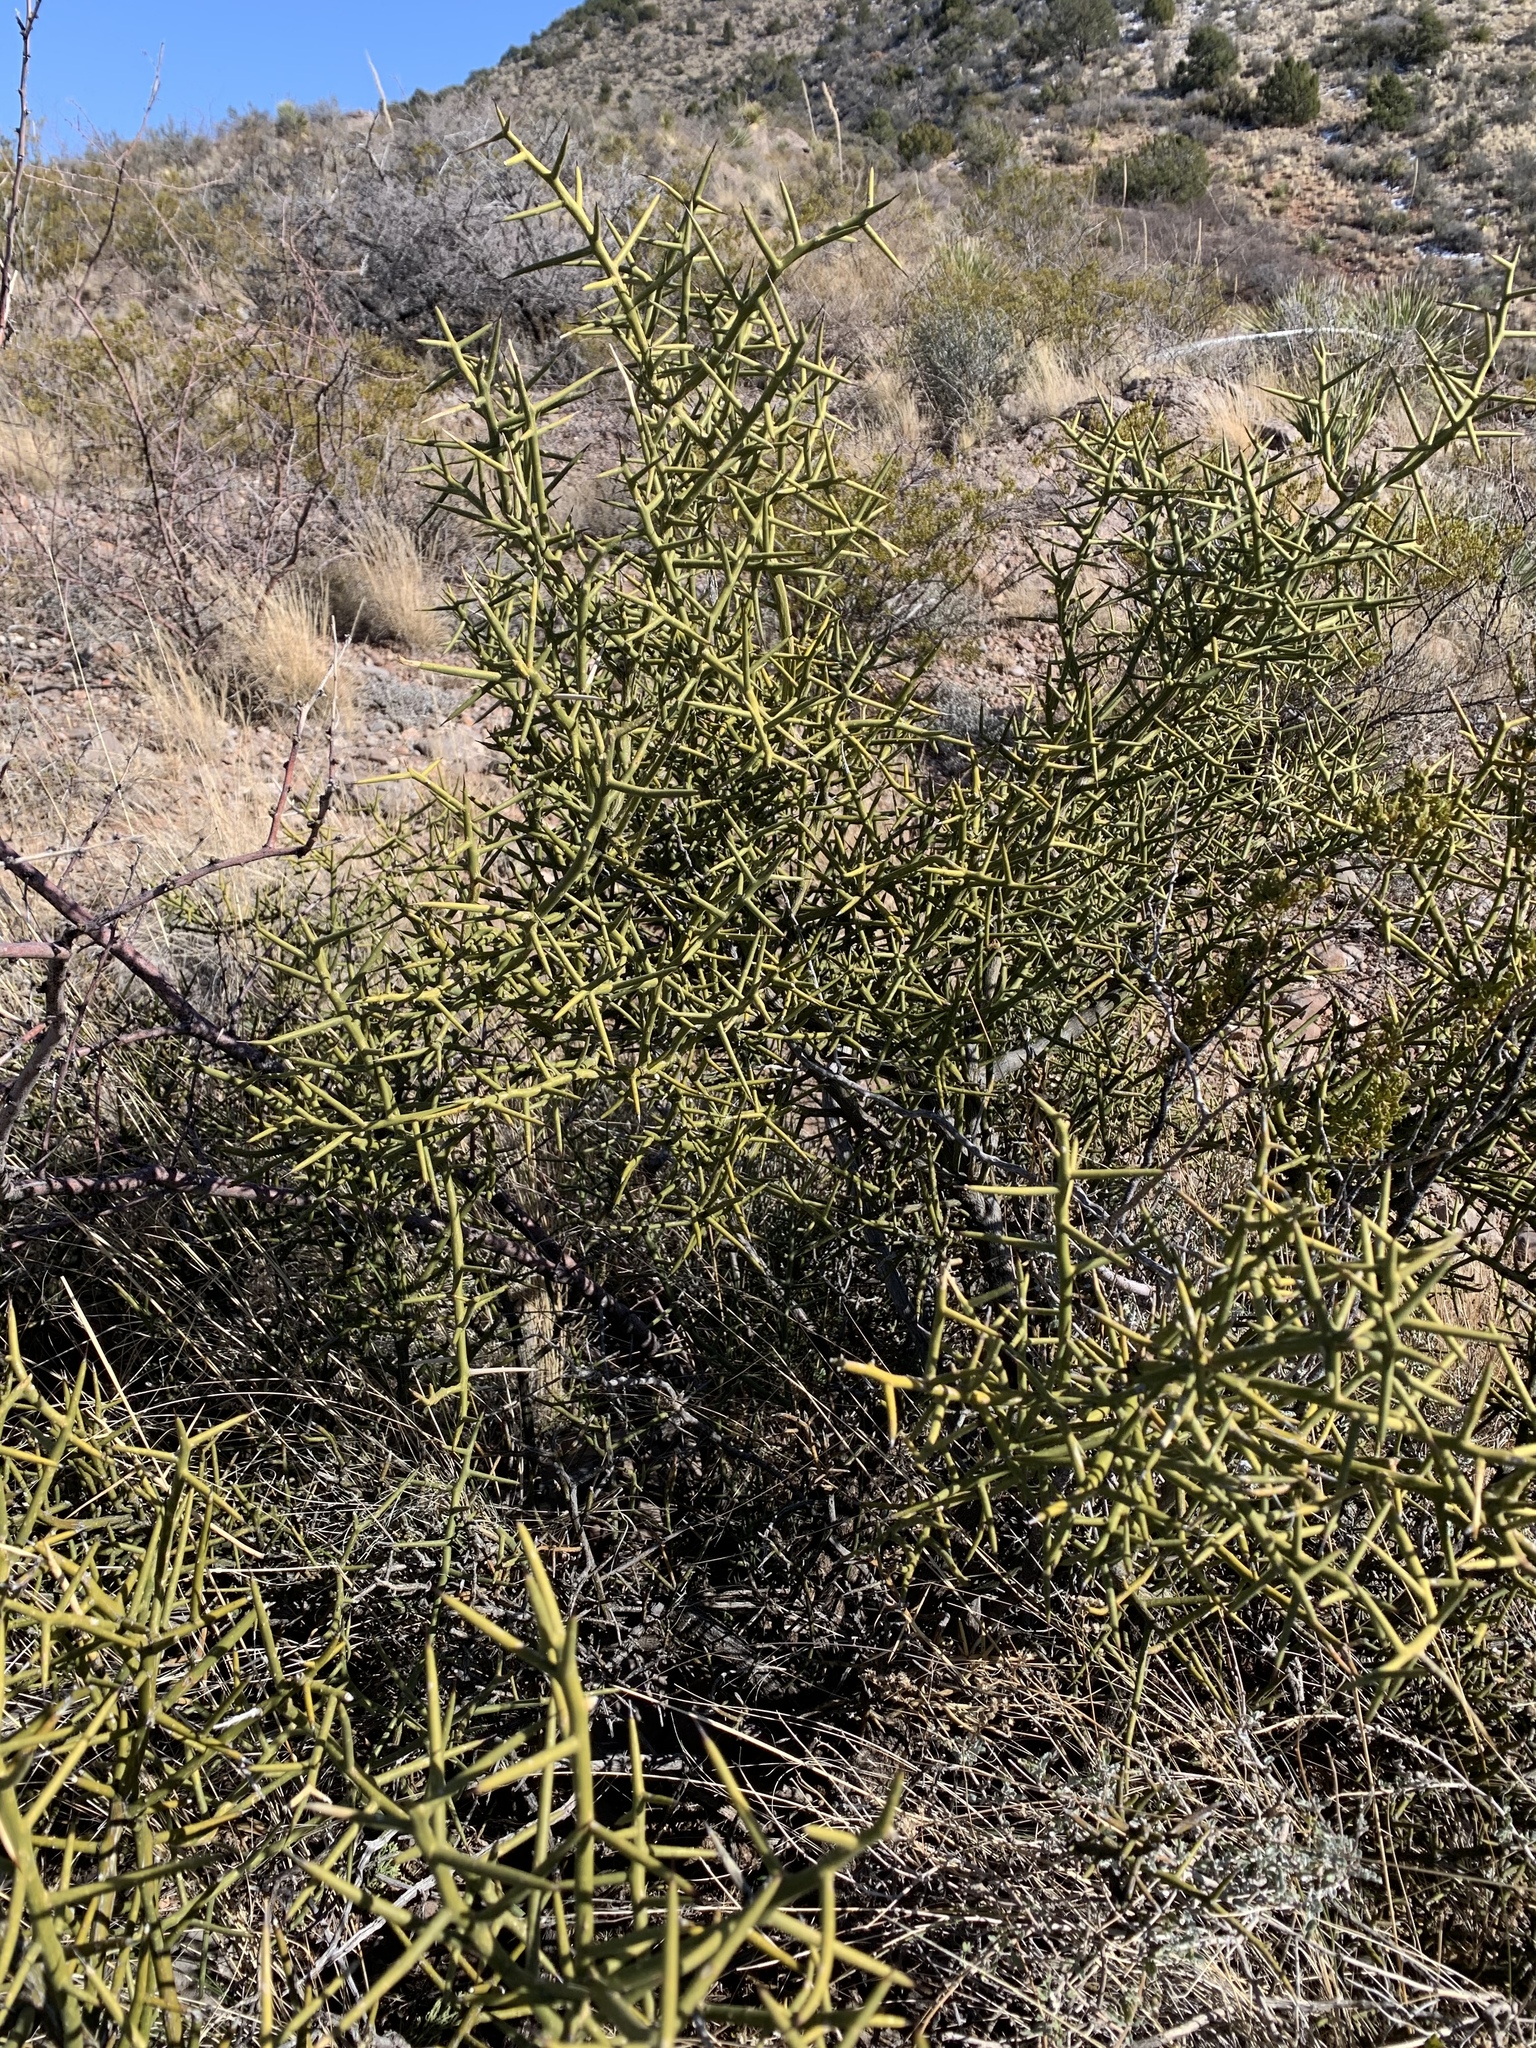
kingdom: Plantae
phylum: Tracheophyta
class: Magnoliopsida
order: Brassicales
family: Koeberliniaceae
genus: Koeberlinia
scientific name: Koeberlinia spinosa
